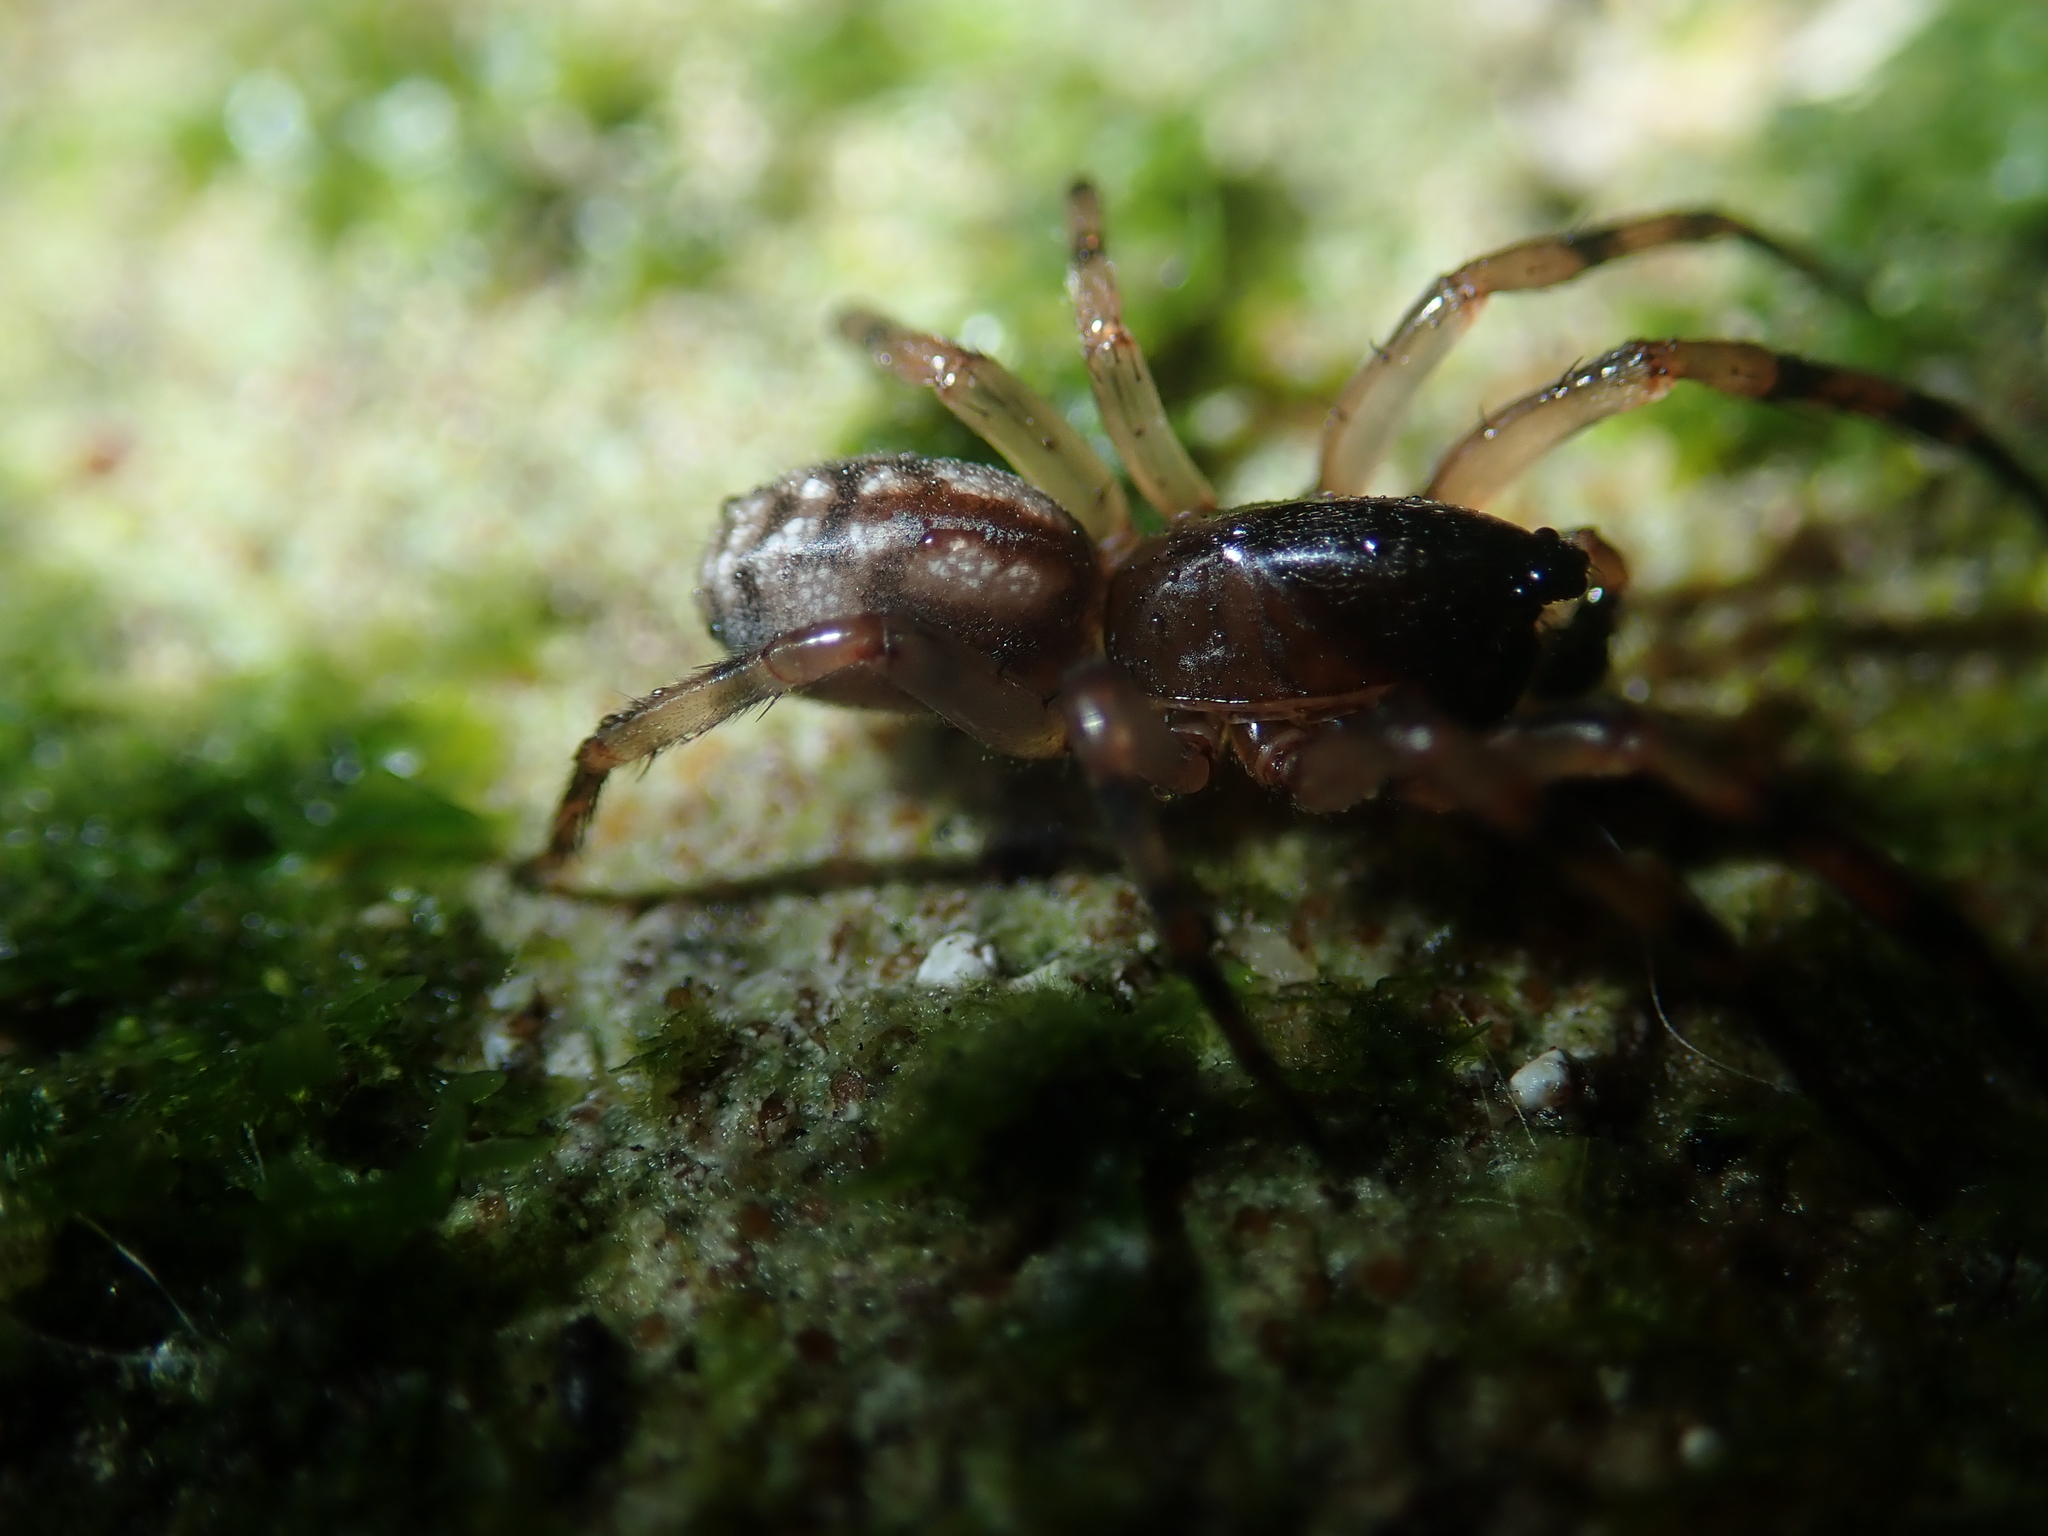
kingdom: Animalia
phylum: Arthropoda
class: Arachnida
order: Araneae
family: Cycloctenidae
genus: Plectophanes
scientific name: Plectophanes
